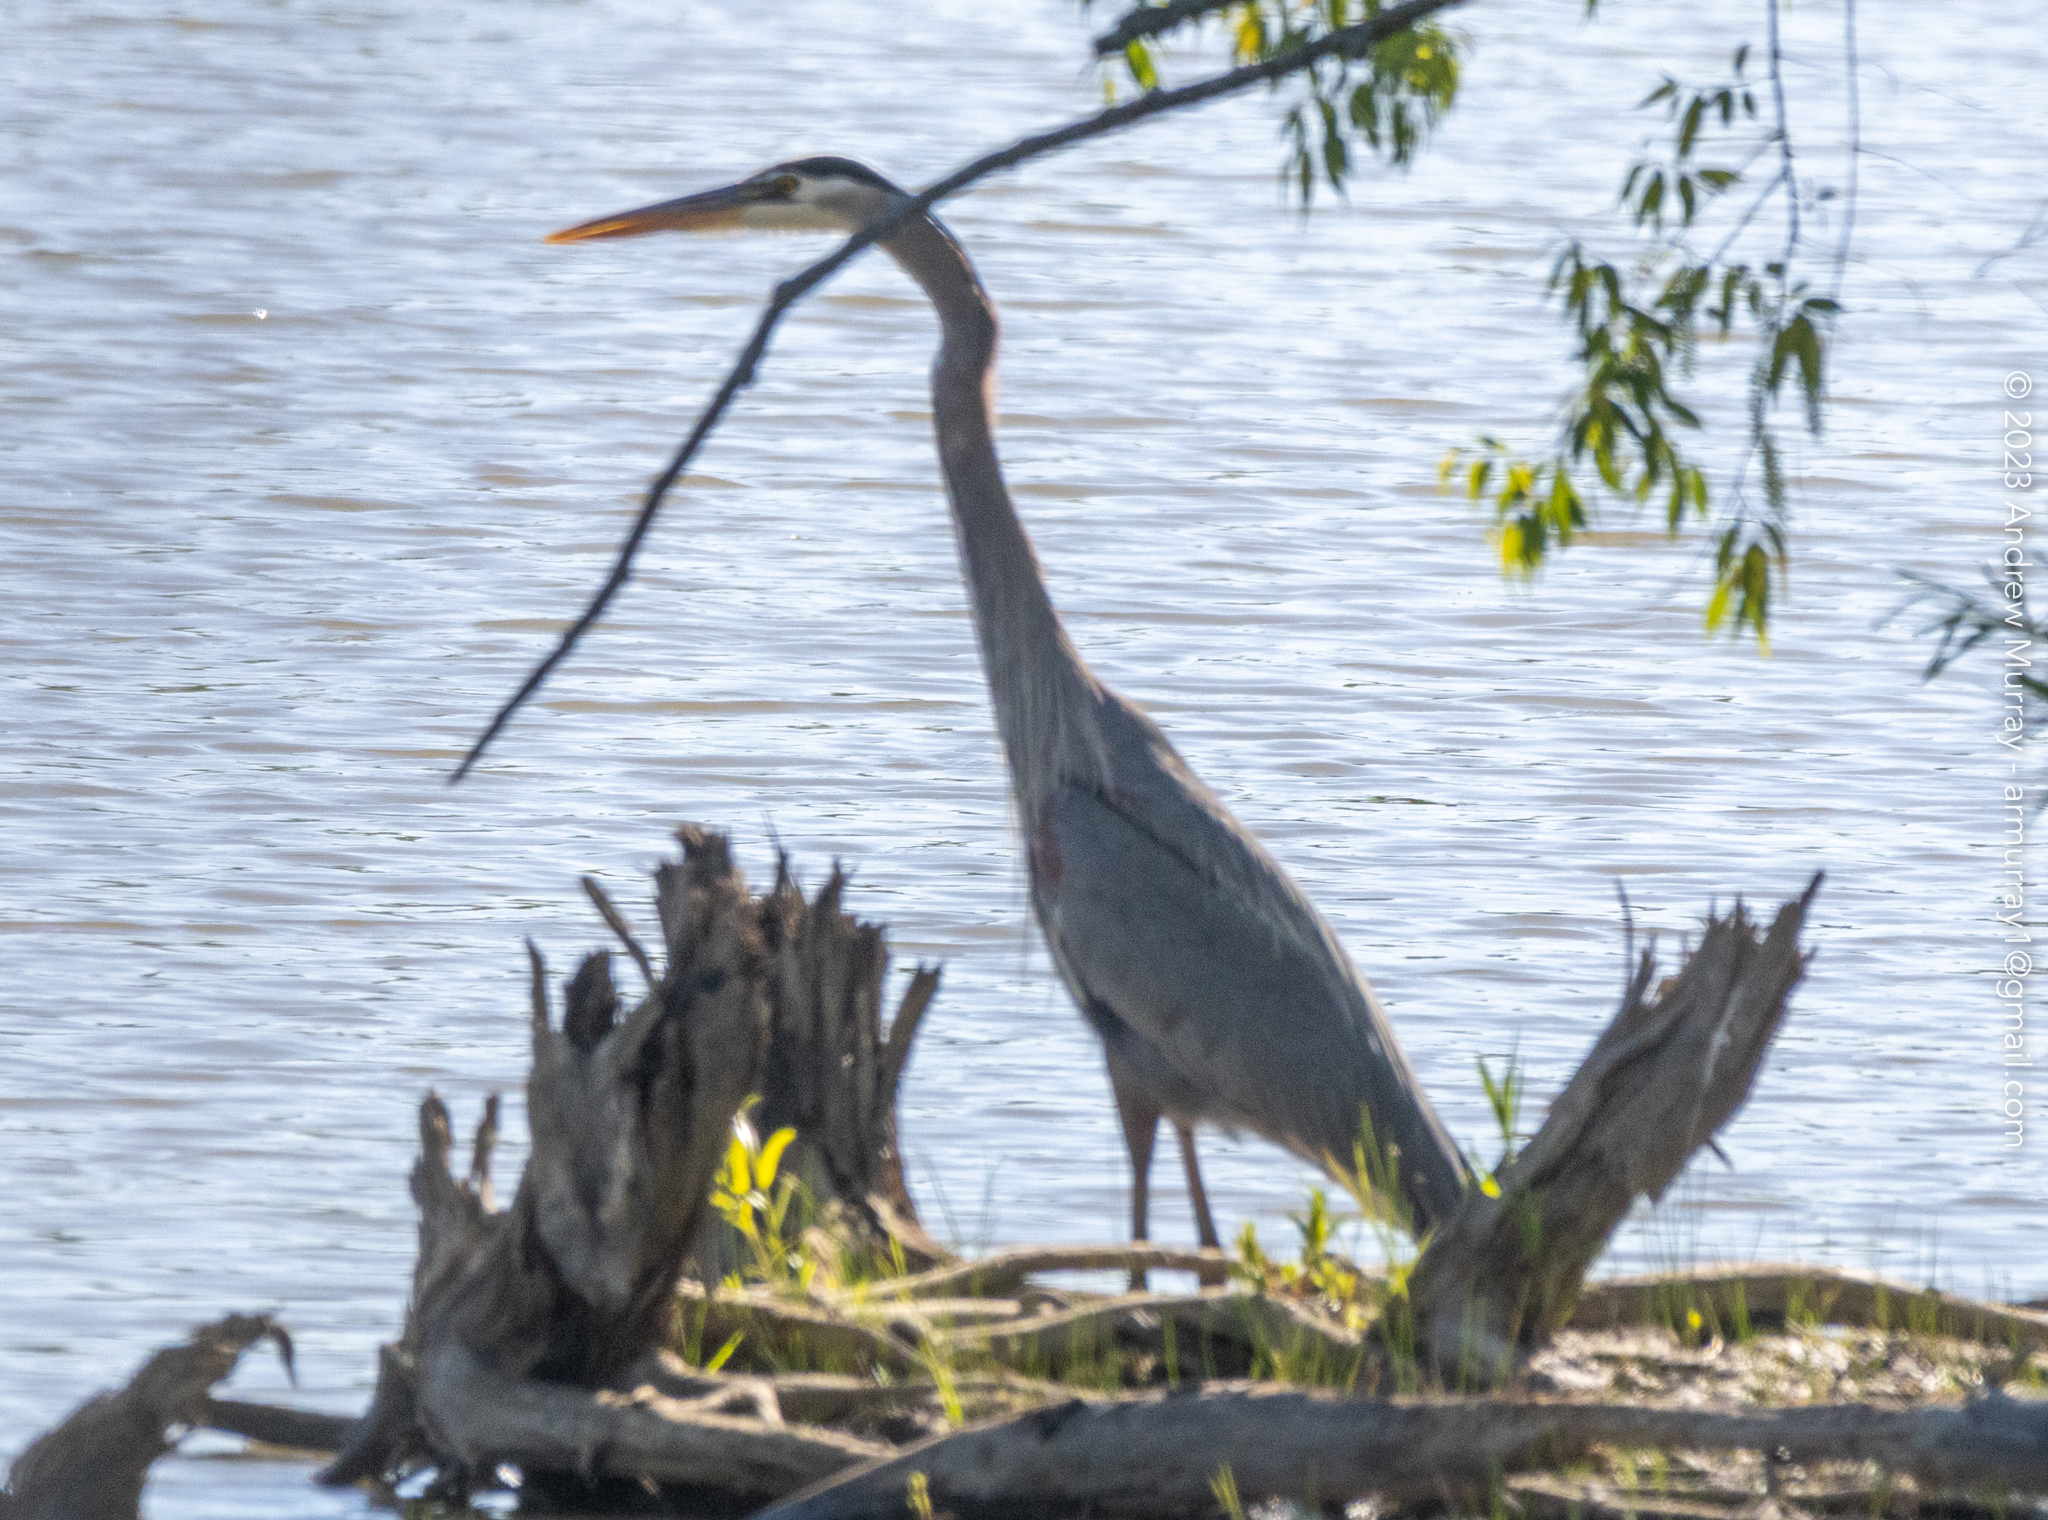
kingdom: Animalia
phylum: Chordata
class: Aves
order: Pelecaniformes
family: Ardeidae
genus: Ardea
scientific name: Ardea herodias
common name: Great blue heron
